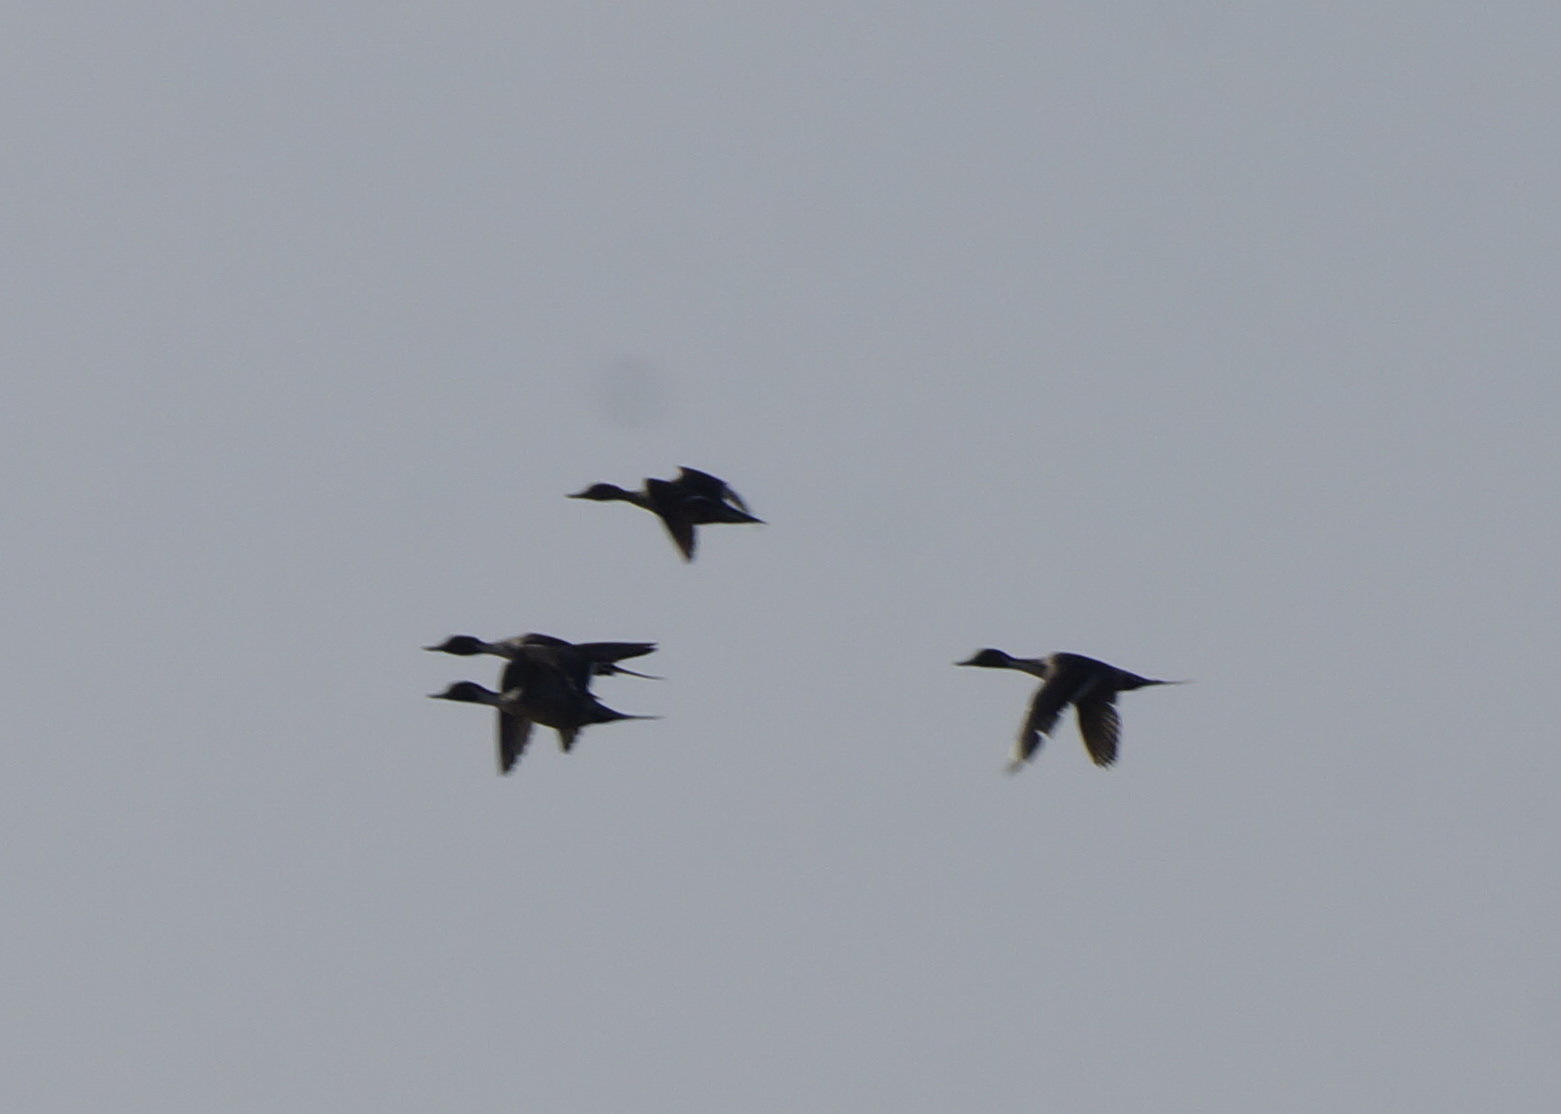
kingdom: Animalia
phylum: Chordata
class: Aves
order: Anseriformes
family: Anatidae
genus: Anas
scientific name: Anas acuta
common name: Northern pintail
